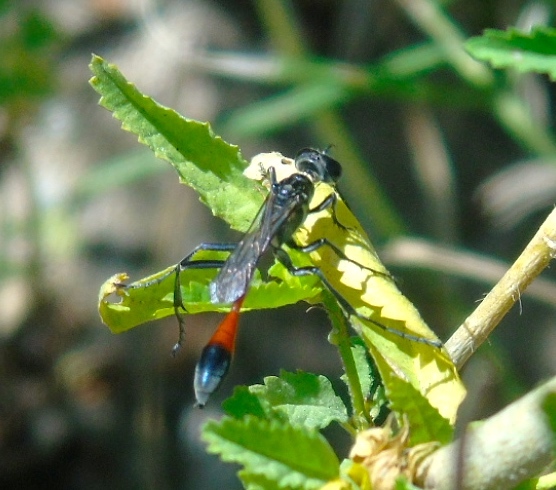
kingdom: Animalia
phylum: Arthropoda
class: Insecta
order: Hymenoptera
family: Sphecidae
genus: Ammophila
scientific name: Ammophila
